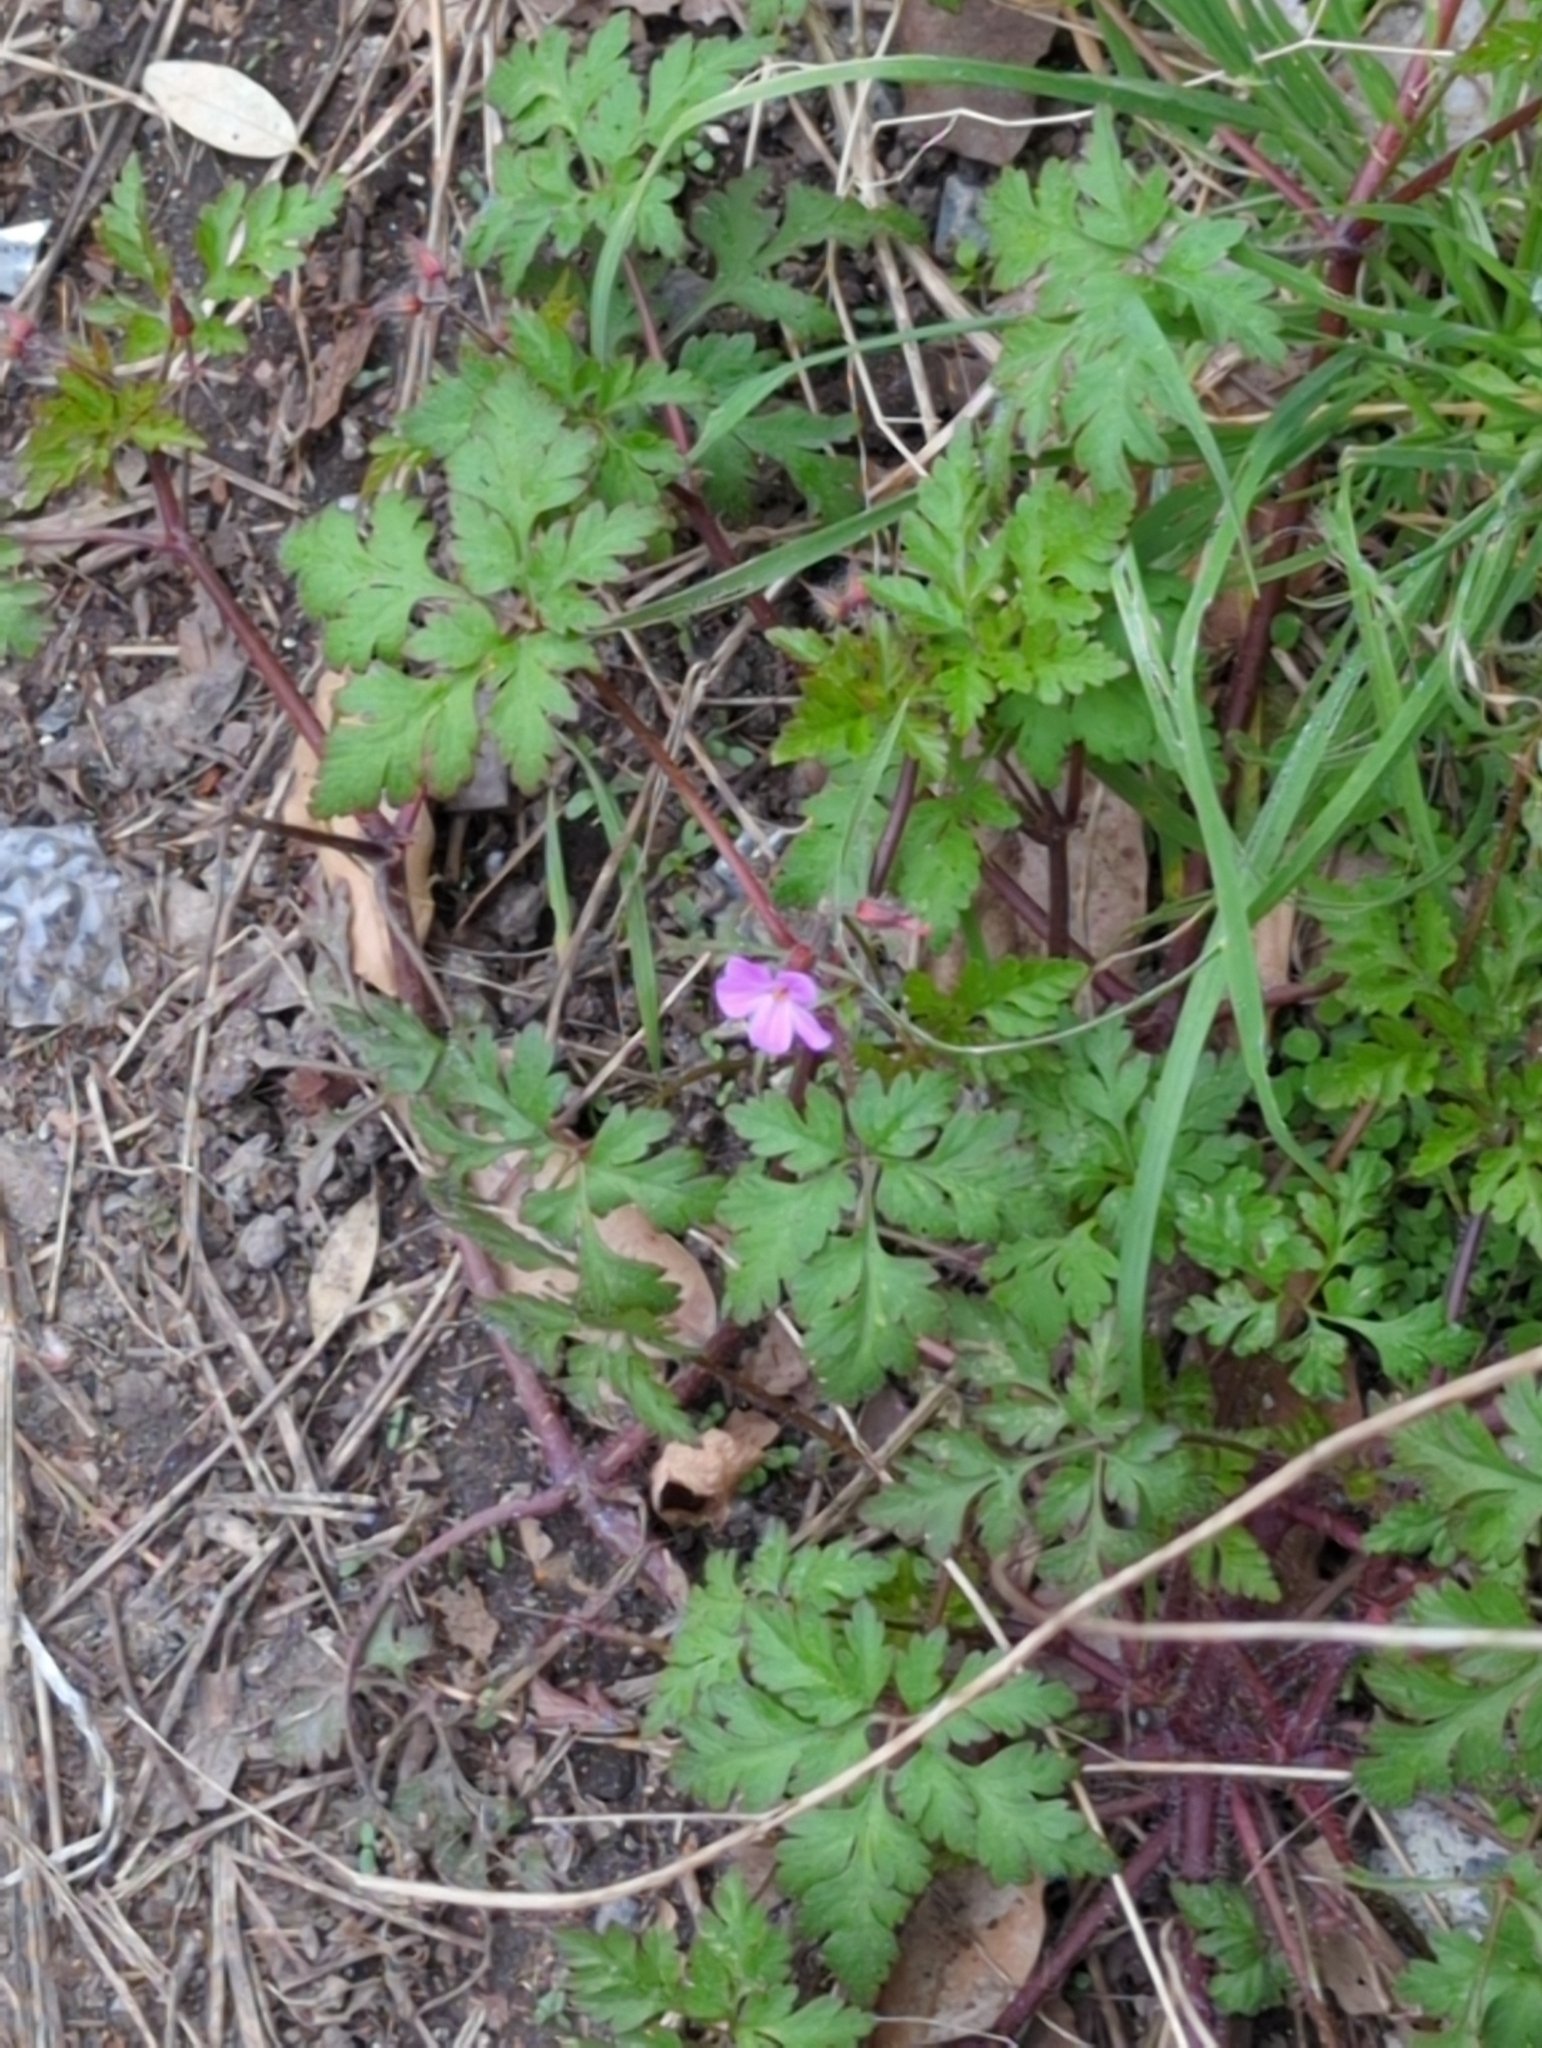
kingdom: Plantae
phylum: Tracheophyta
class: Magnoliopsida
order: Geraniales
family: Geraniaceae
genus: Geranium
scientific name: Geranium robertianum
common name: Herb-robert
